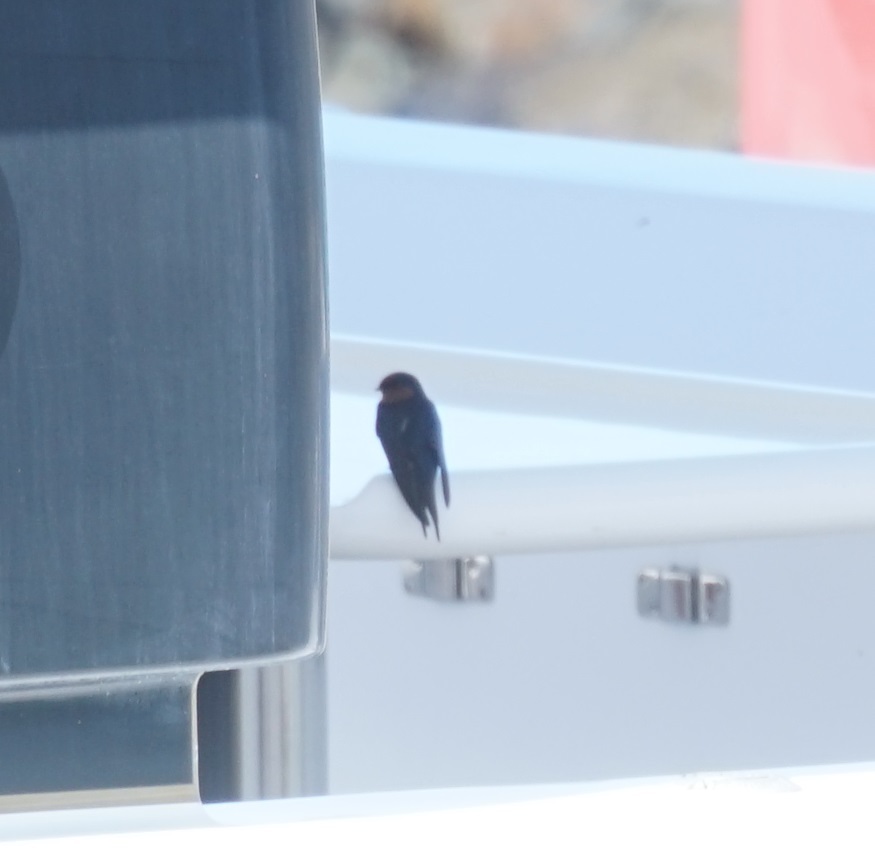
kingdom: Animalia
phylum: Chordata
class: Aves
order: Passeriformes
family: Hirundinidae
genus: Hirundo
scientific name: Hirundo neoxena
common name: Welcome swallow
